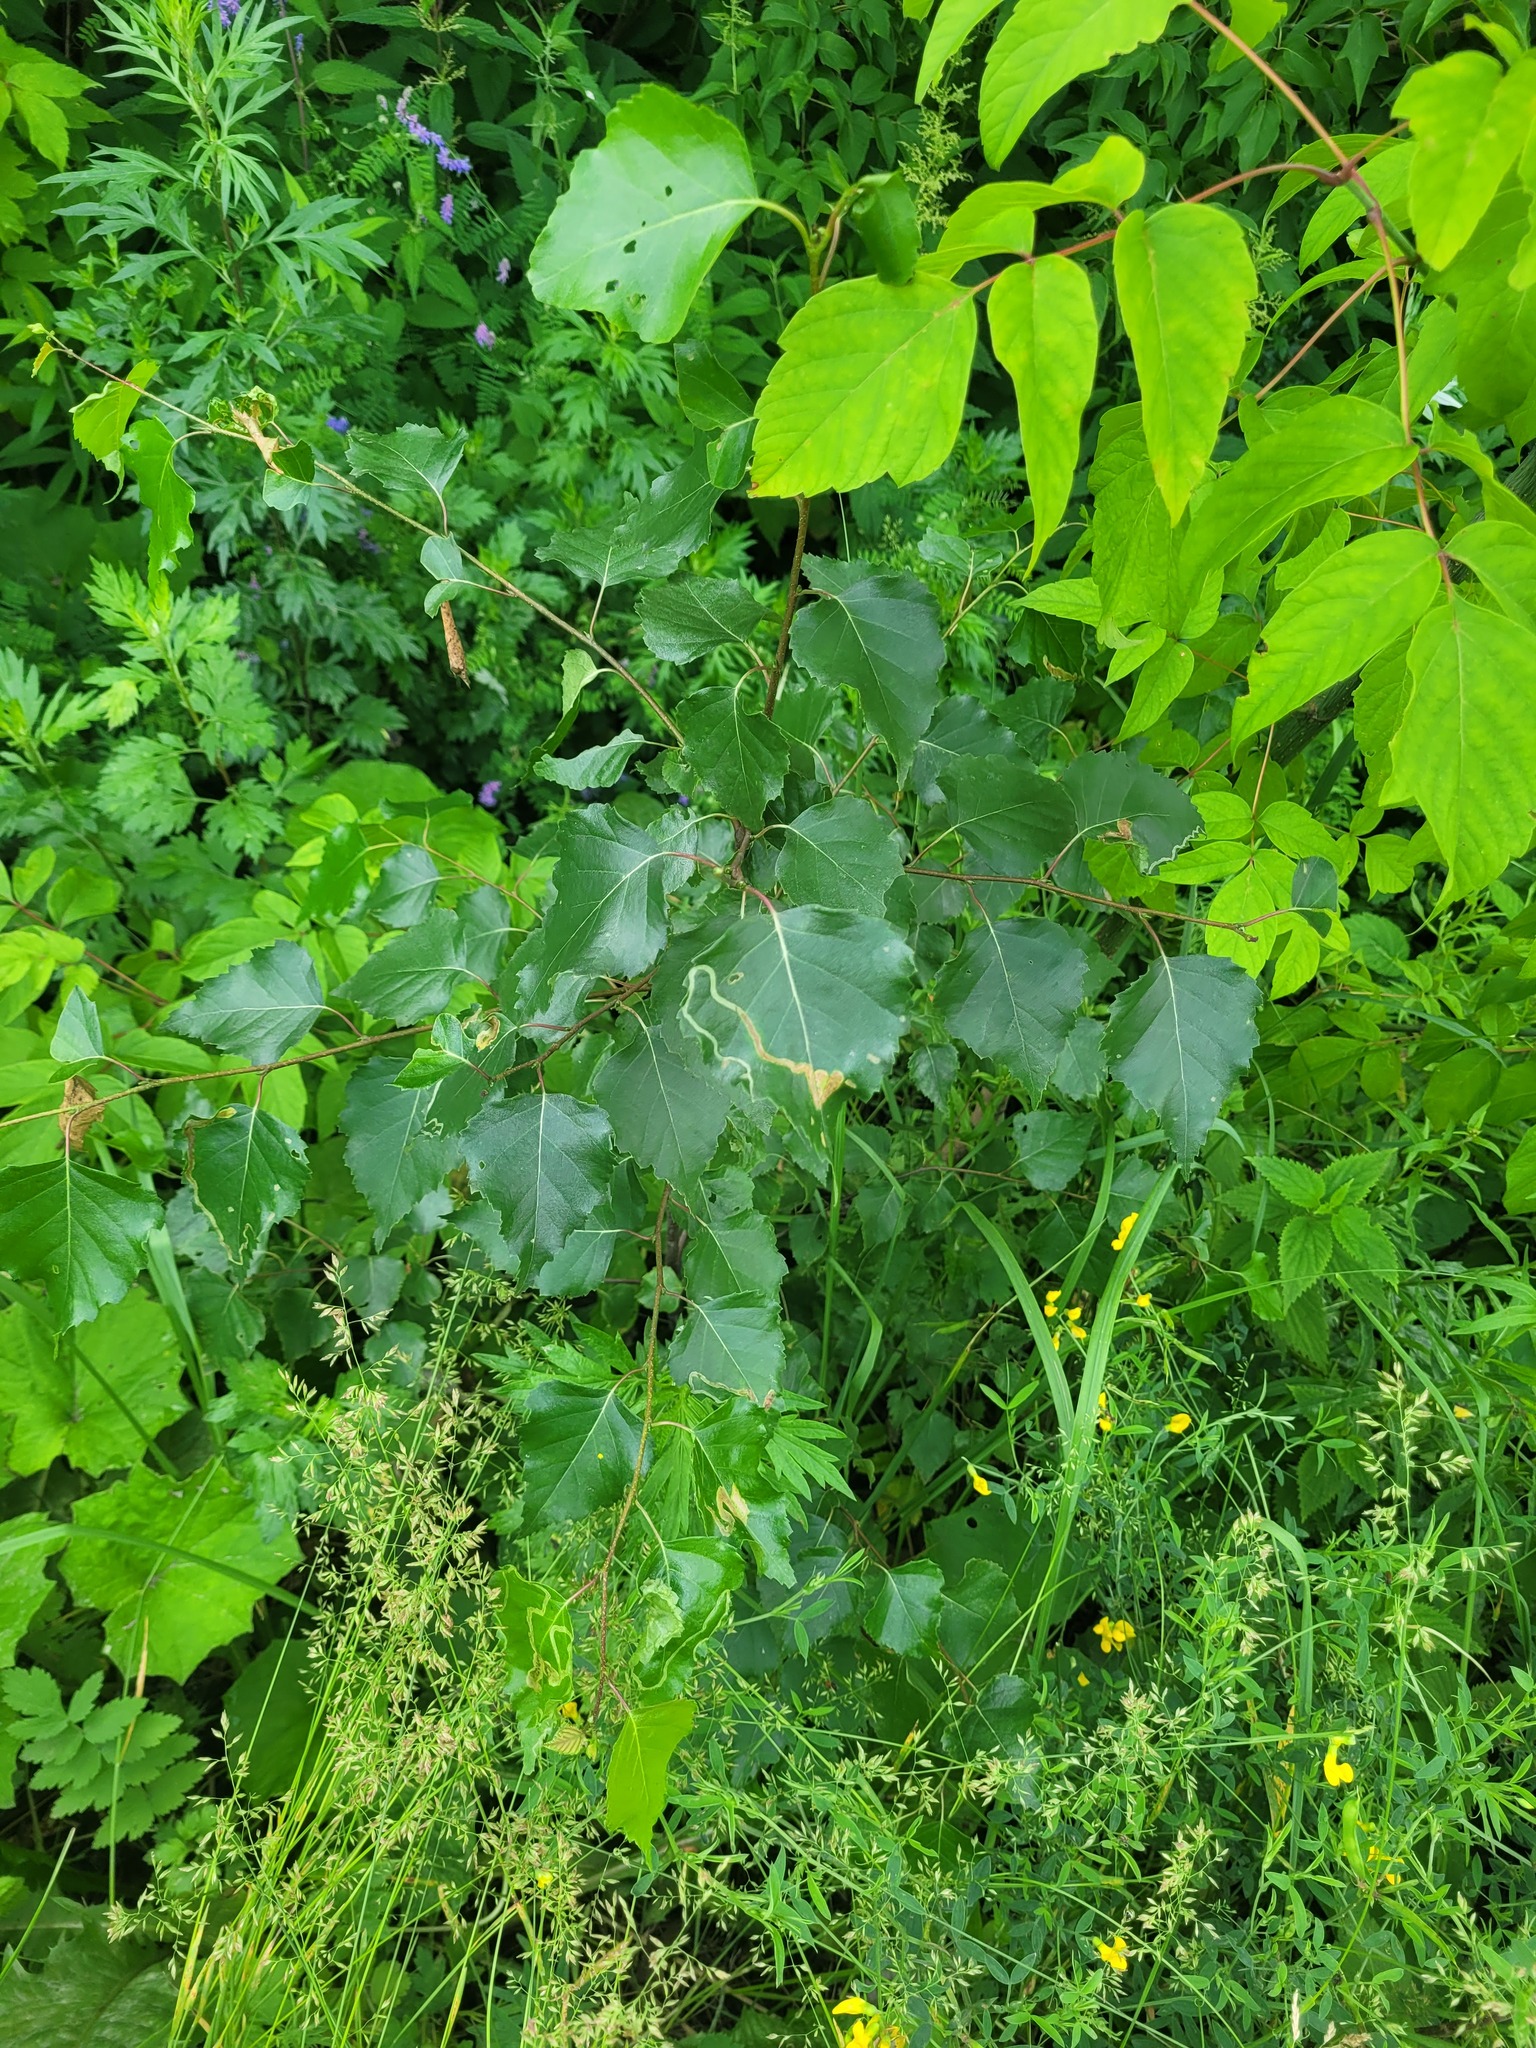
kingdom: Plantae
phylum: Tracheophyta
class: Magnoliopsida
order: Fagales
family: Betulaceae
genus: Betula
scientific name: Betula pendula
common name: Silver birch
